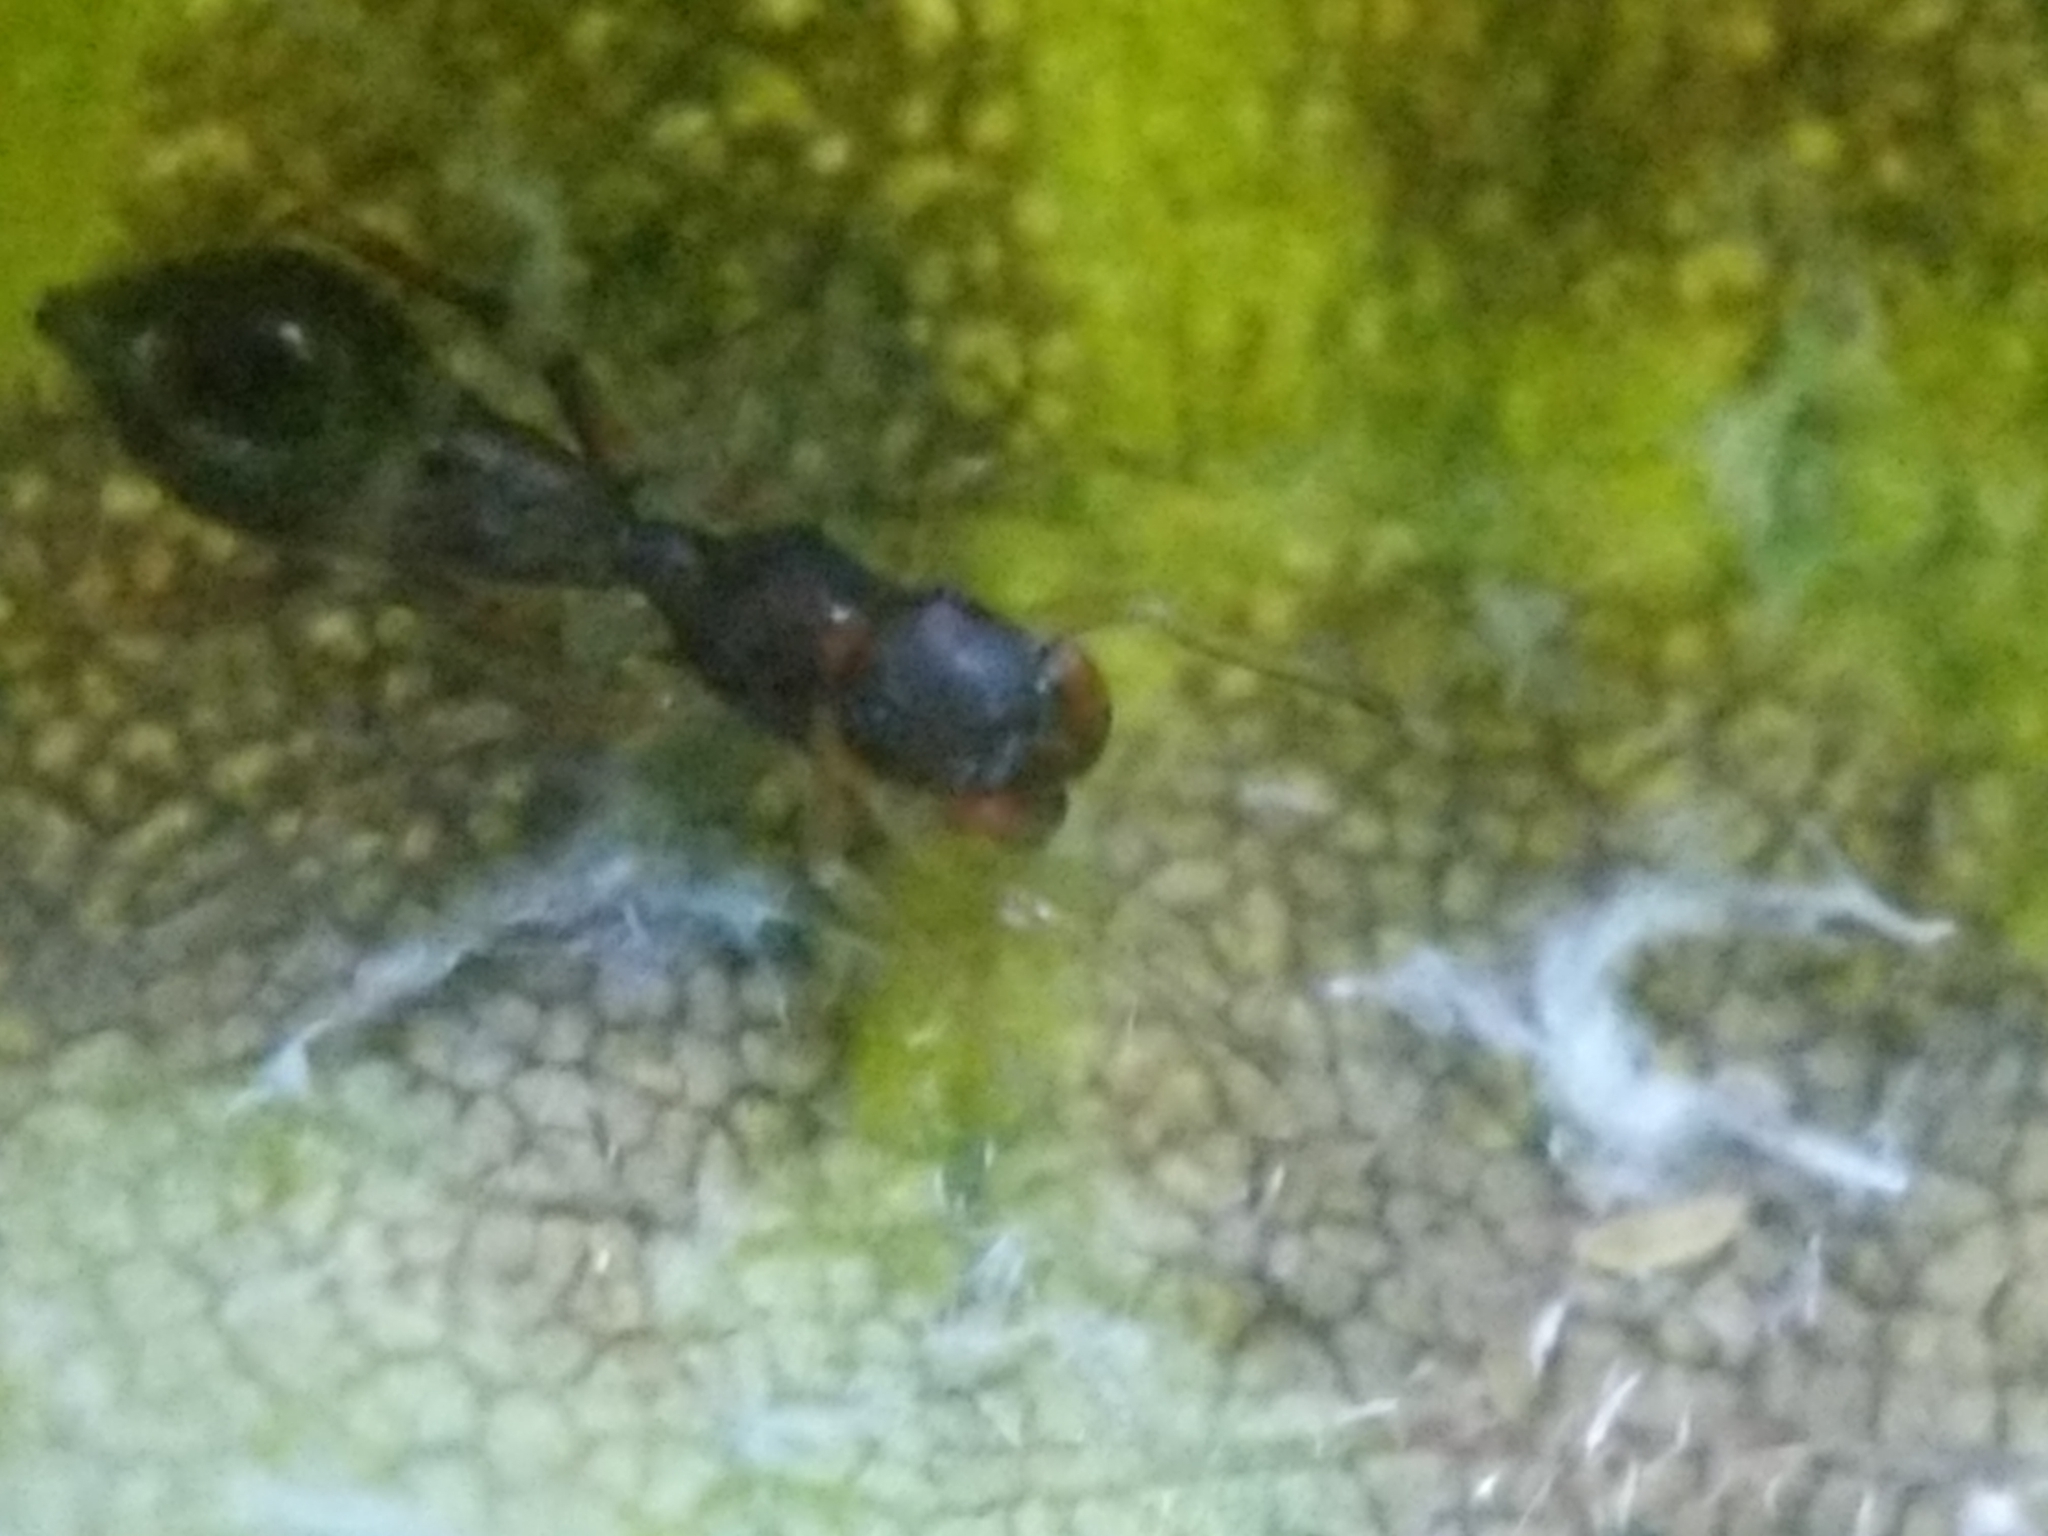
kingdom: Animalia
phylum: Arthropoda
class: Arachnida
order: Araneae
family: Salticidae
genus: Synemosyna
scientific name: Synemosyna formica
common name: Slender ant-mimic jumping spider
